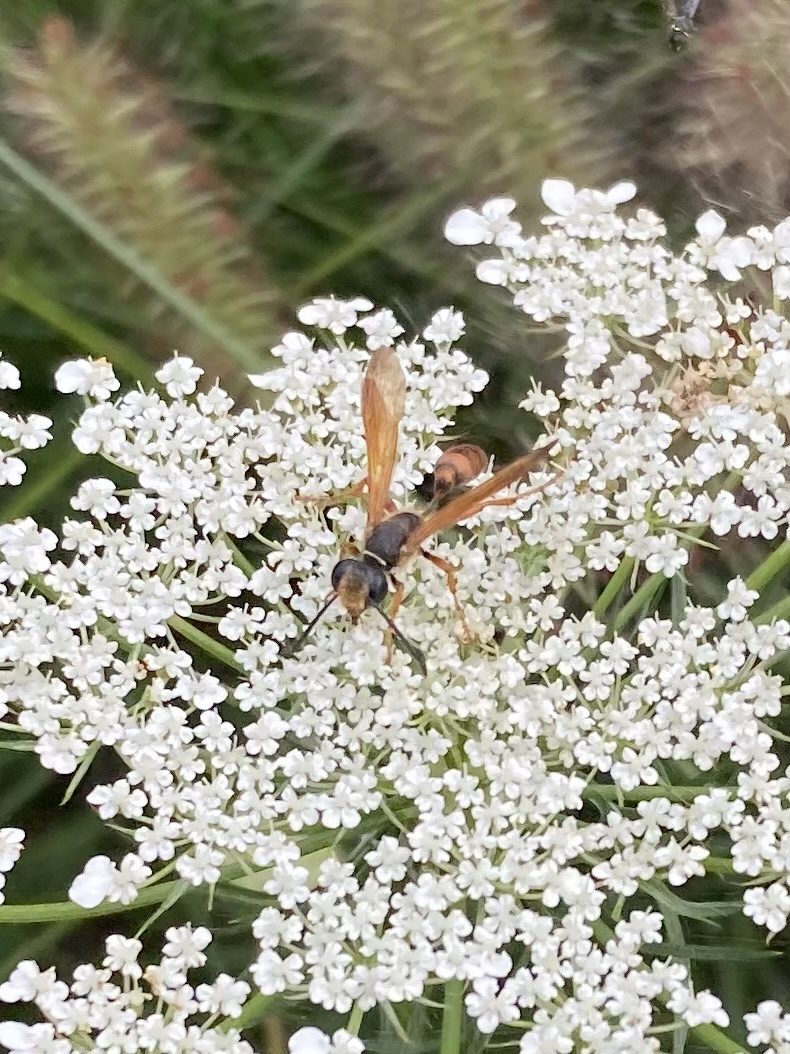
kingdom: Animalia
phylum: Arthropoda
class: Insecta
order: Hymenoptera
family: Sphecidae
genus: Isodontia
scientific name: Isodontia elegans
